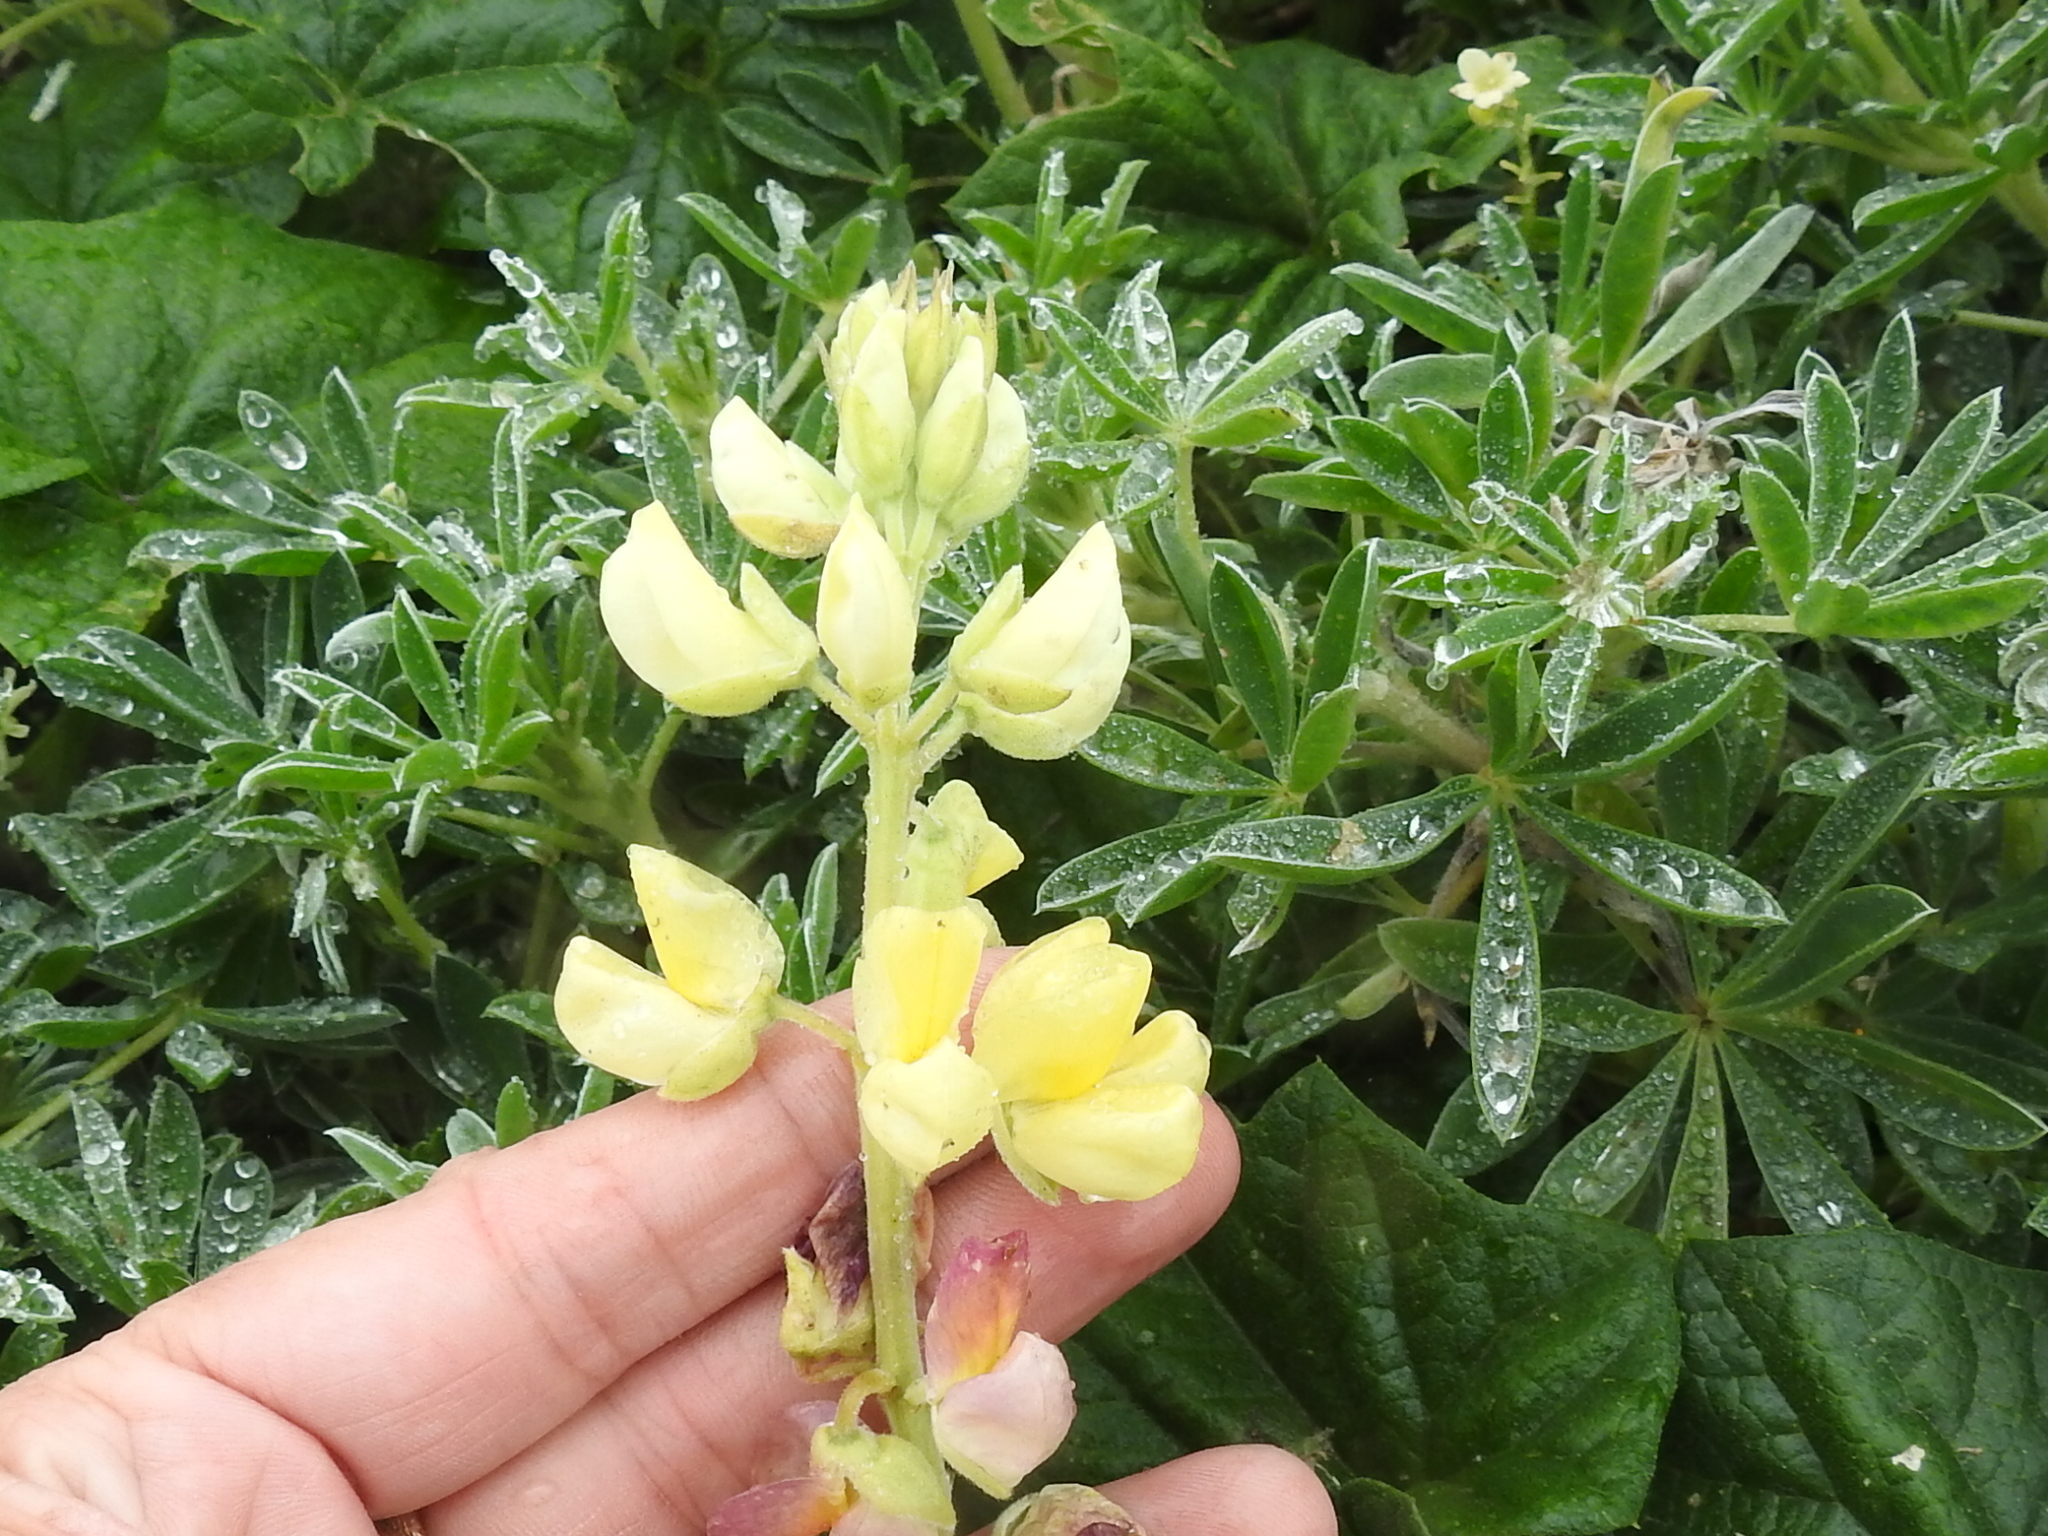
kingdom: Plantae
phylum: Tracheophyta
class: Magnoliopsida
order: Fabales
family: Fabaceae
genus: Lupinus
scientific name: Lupinus arboreus
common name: Yellow bush lupine
